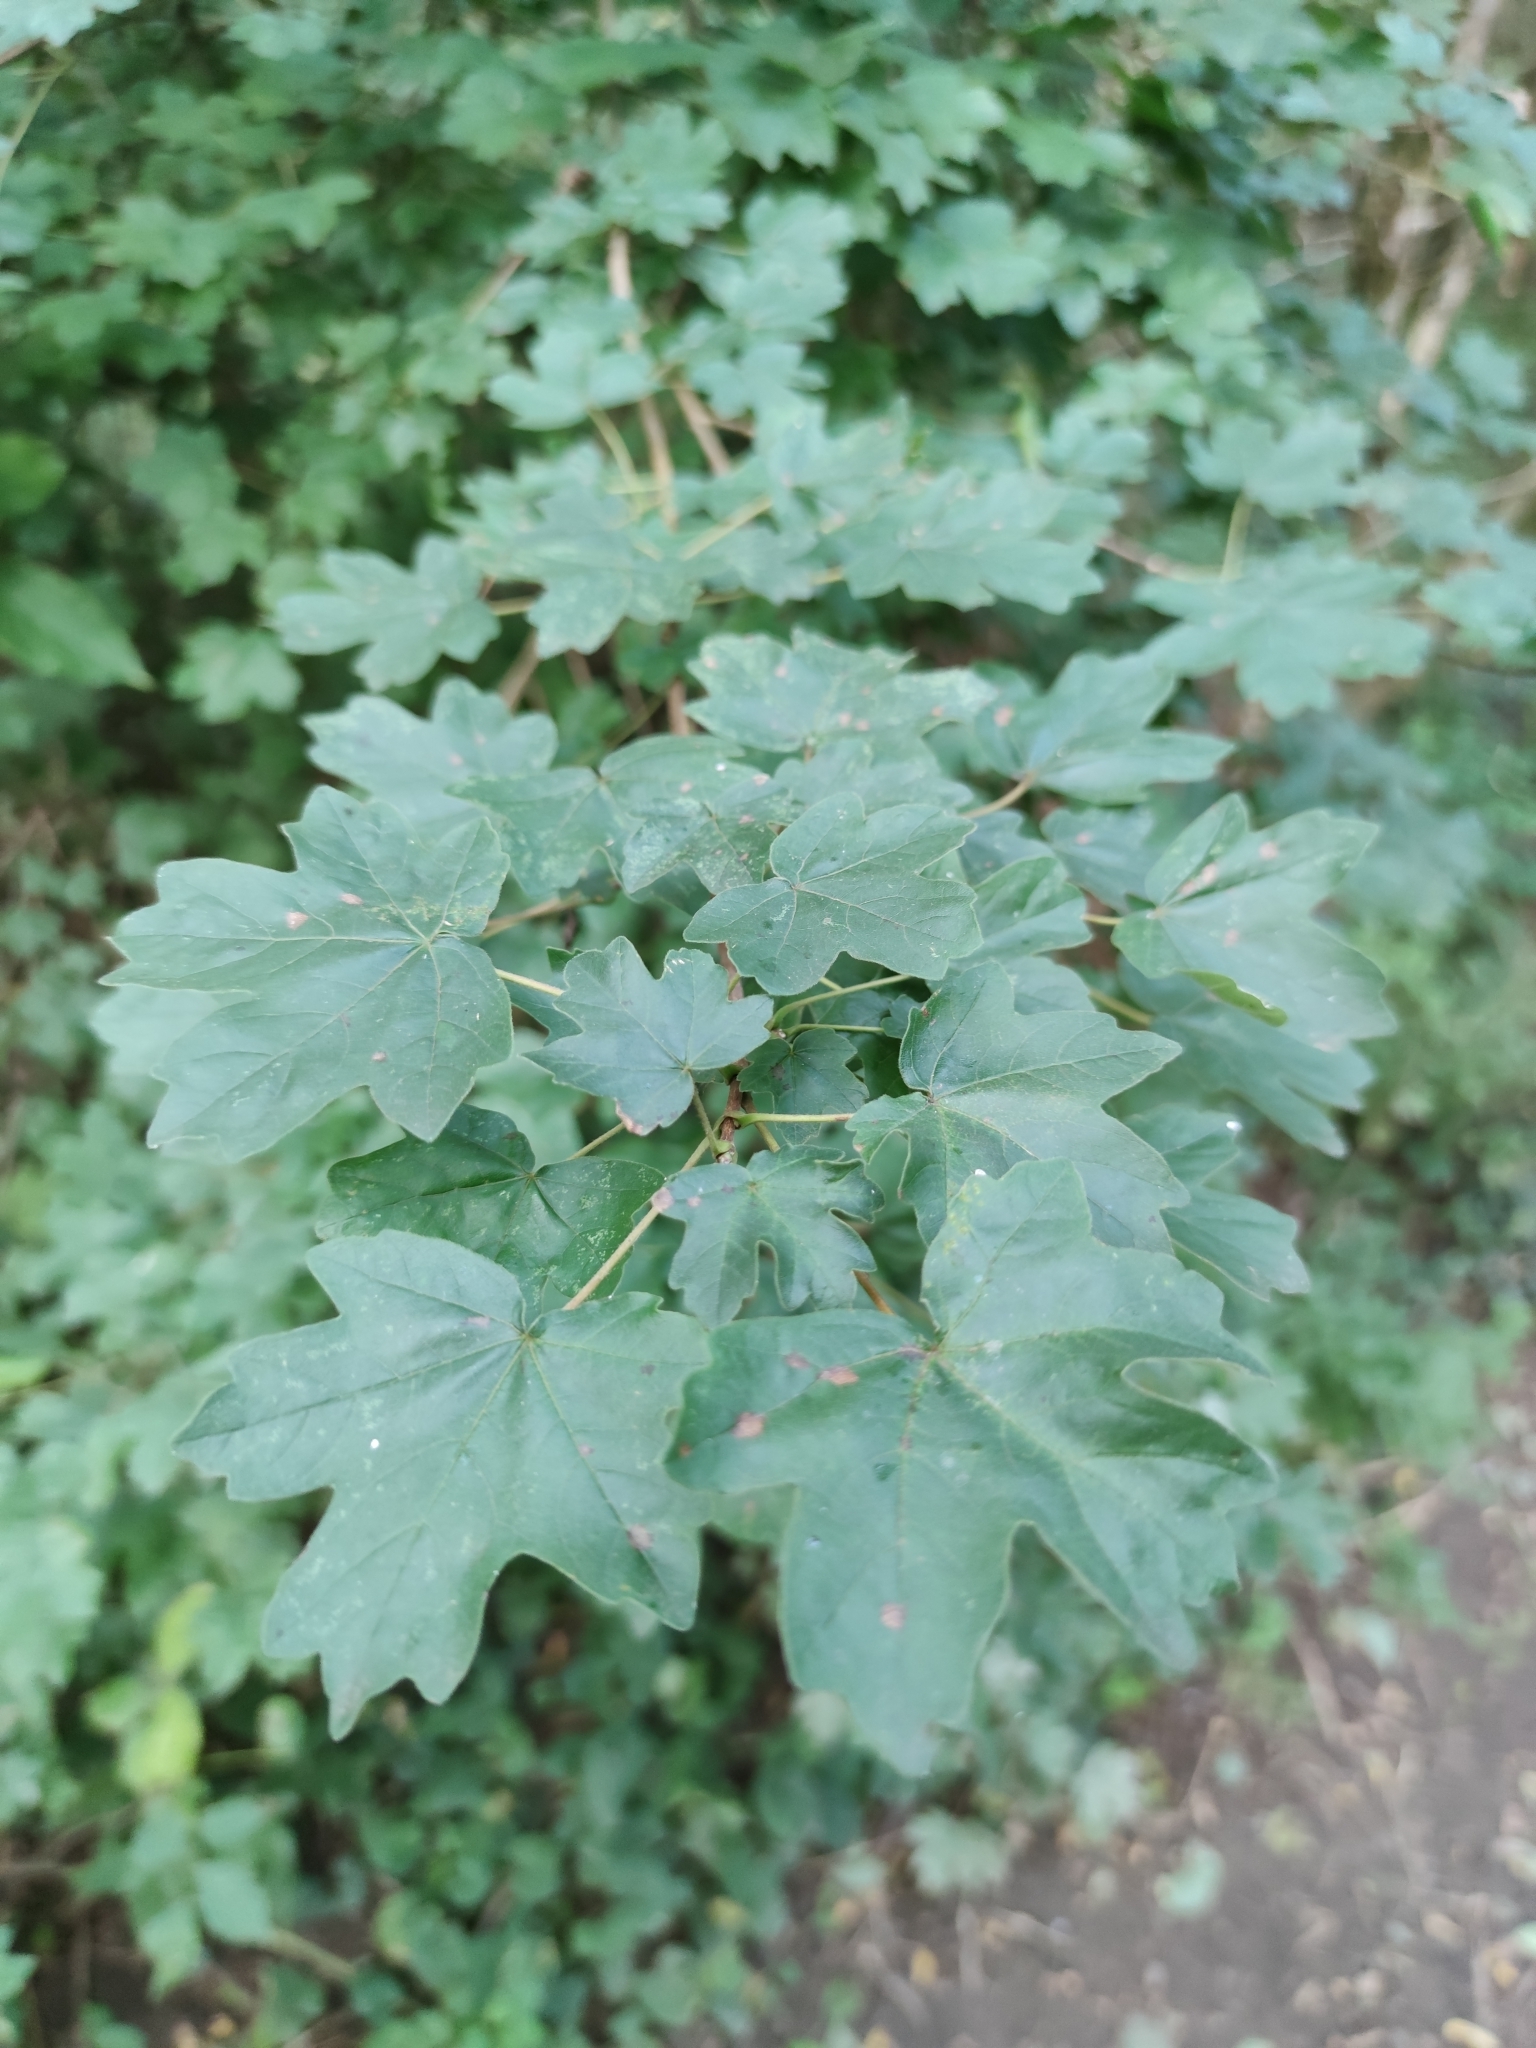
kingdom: Plantae
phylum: Tracheophyta
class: Magnoliopsida
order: Sapindales
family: Sapindaceae
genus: Acer
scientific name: Acer campestre
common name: Field maple
